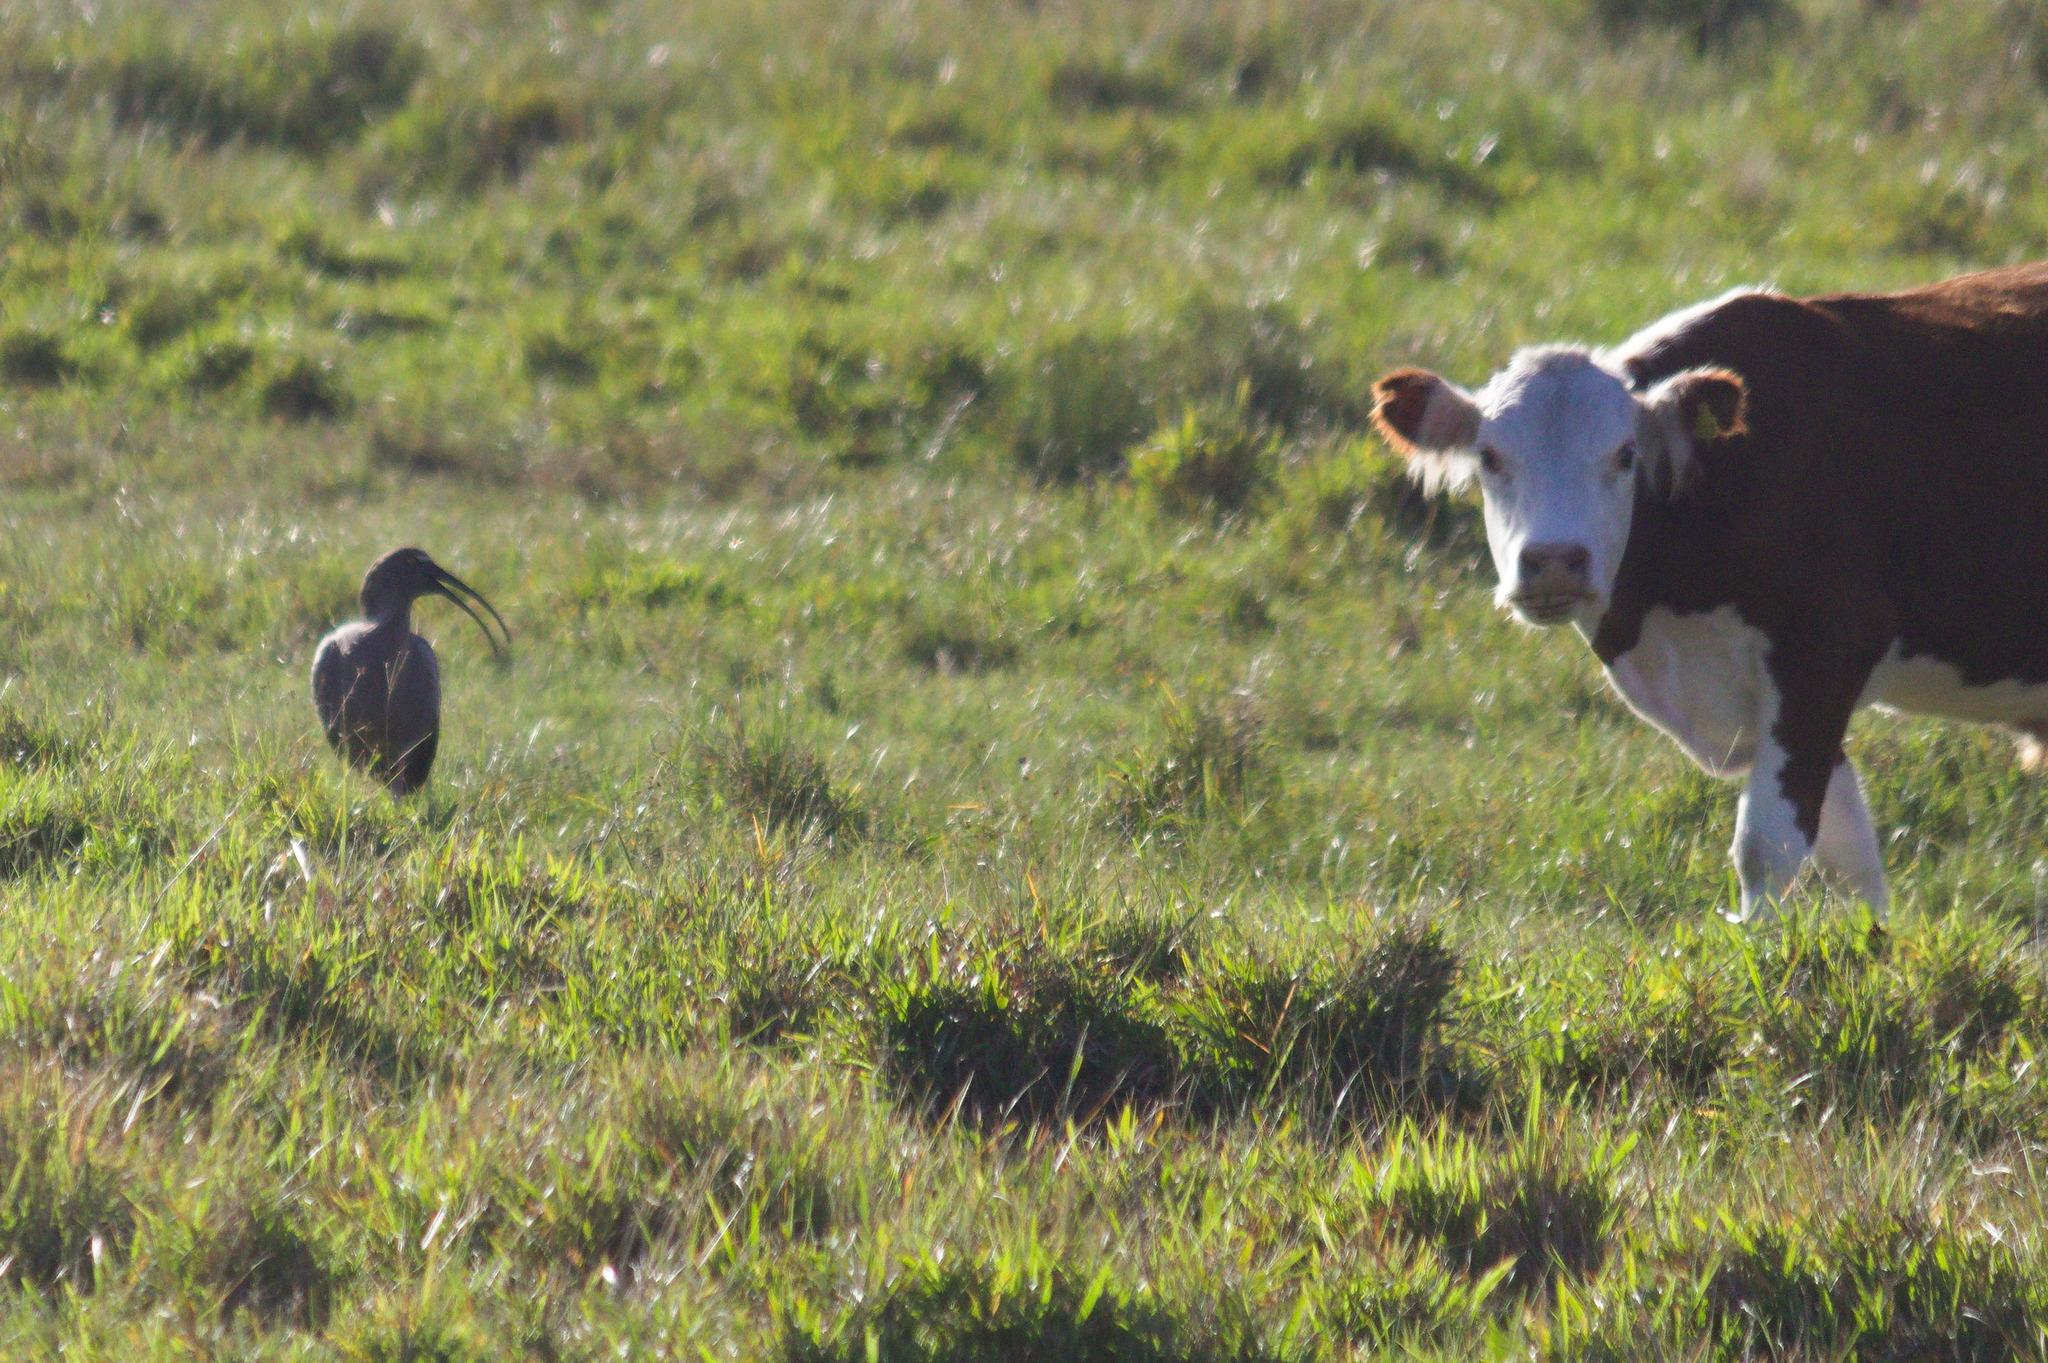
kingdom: Animalia
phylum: Chordata
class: Aves
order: Pelecaniformes
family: Threskiornithidae
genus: Theristicus
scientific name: Theristicus caerulescens
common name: Plumbeous ibis
